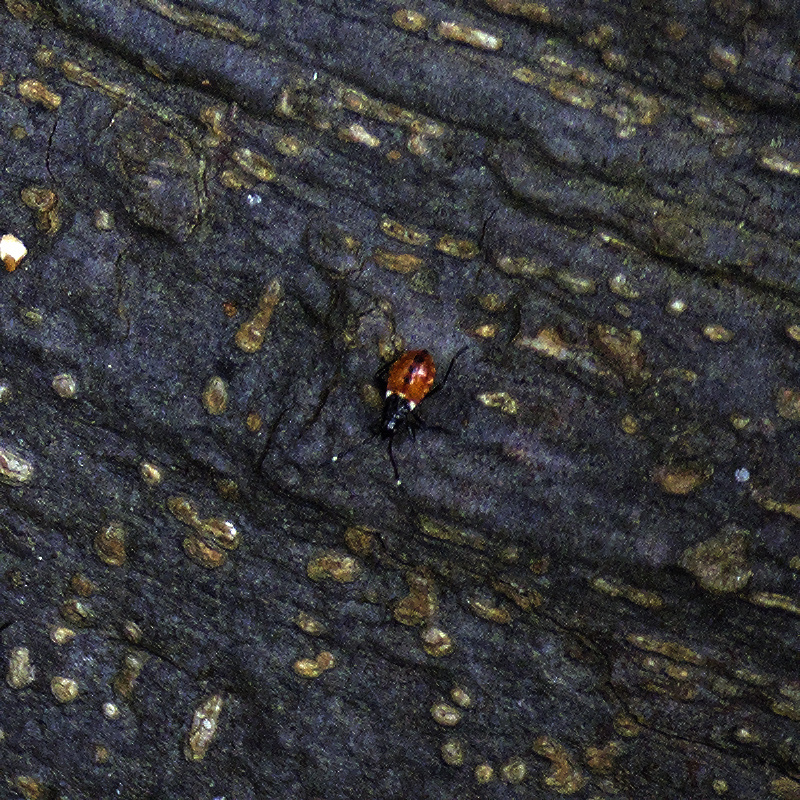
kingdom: Animalia
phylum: Arthropoda
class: Insecta
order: Hemiptera
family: Pyrrhocoridae
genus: Dindymus
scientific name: Dindymus
